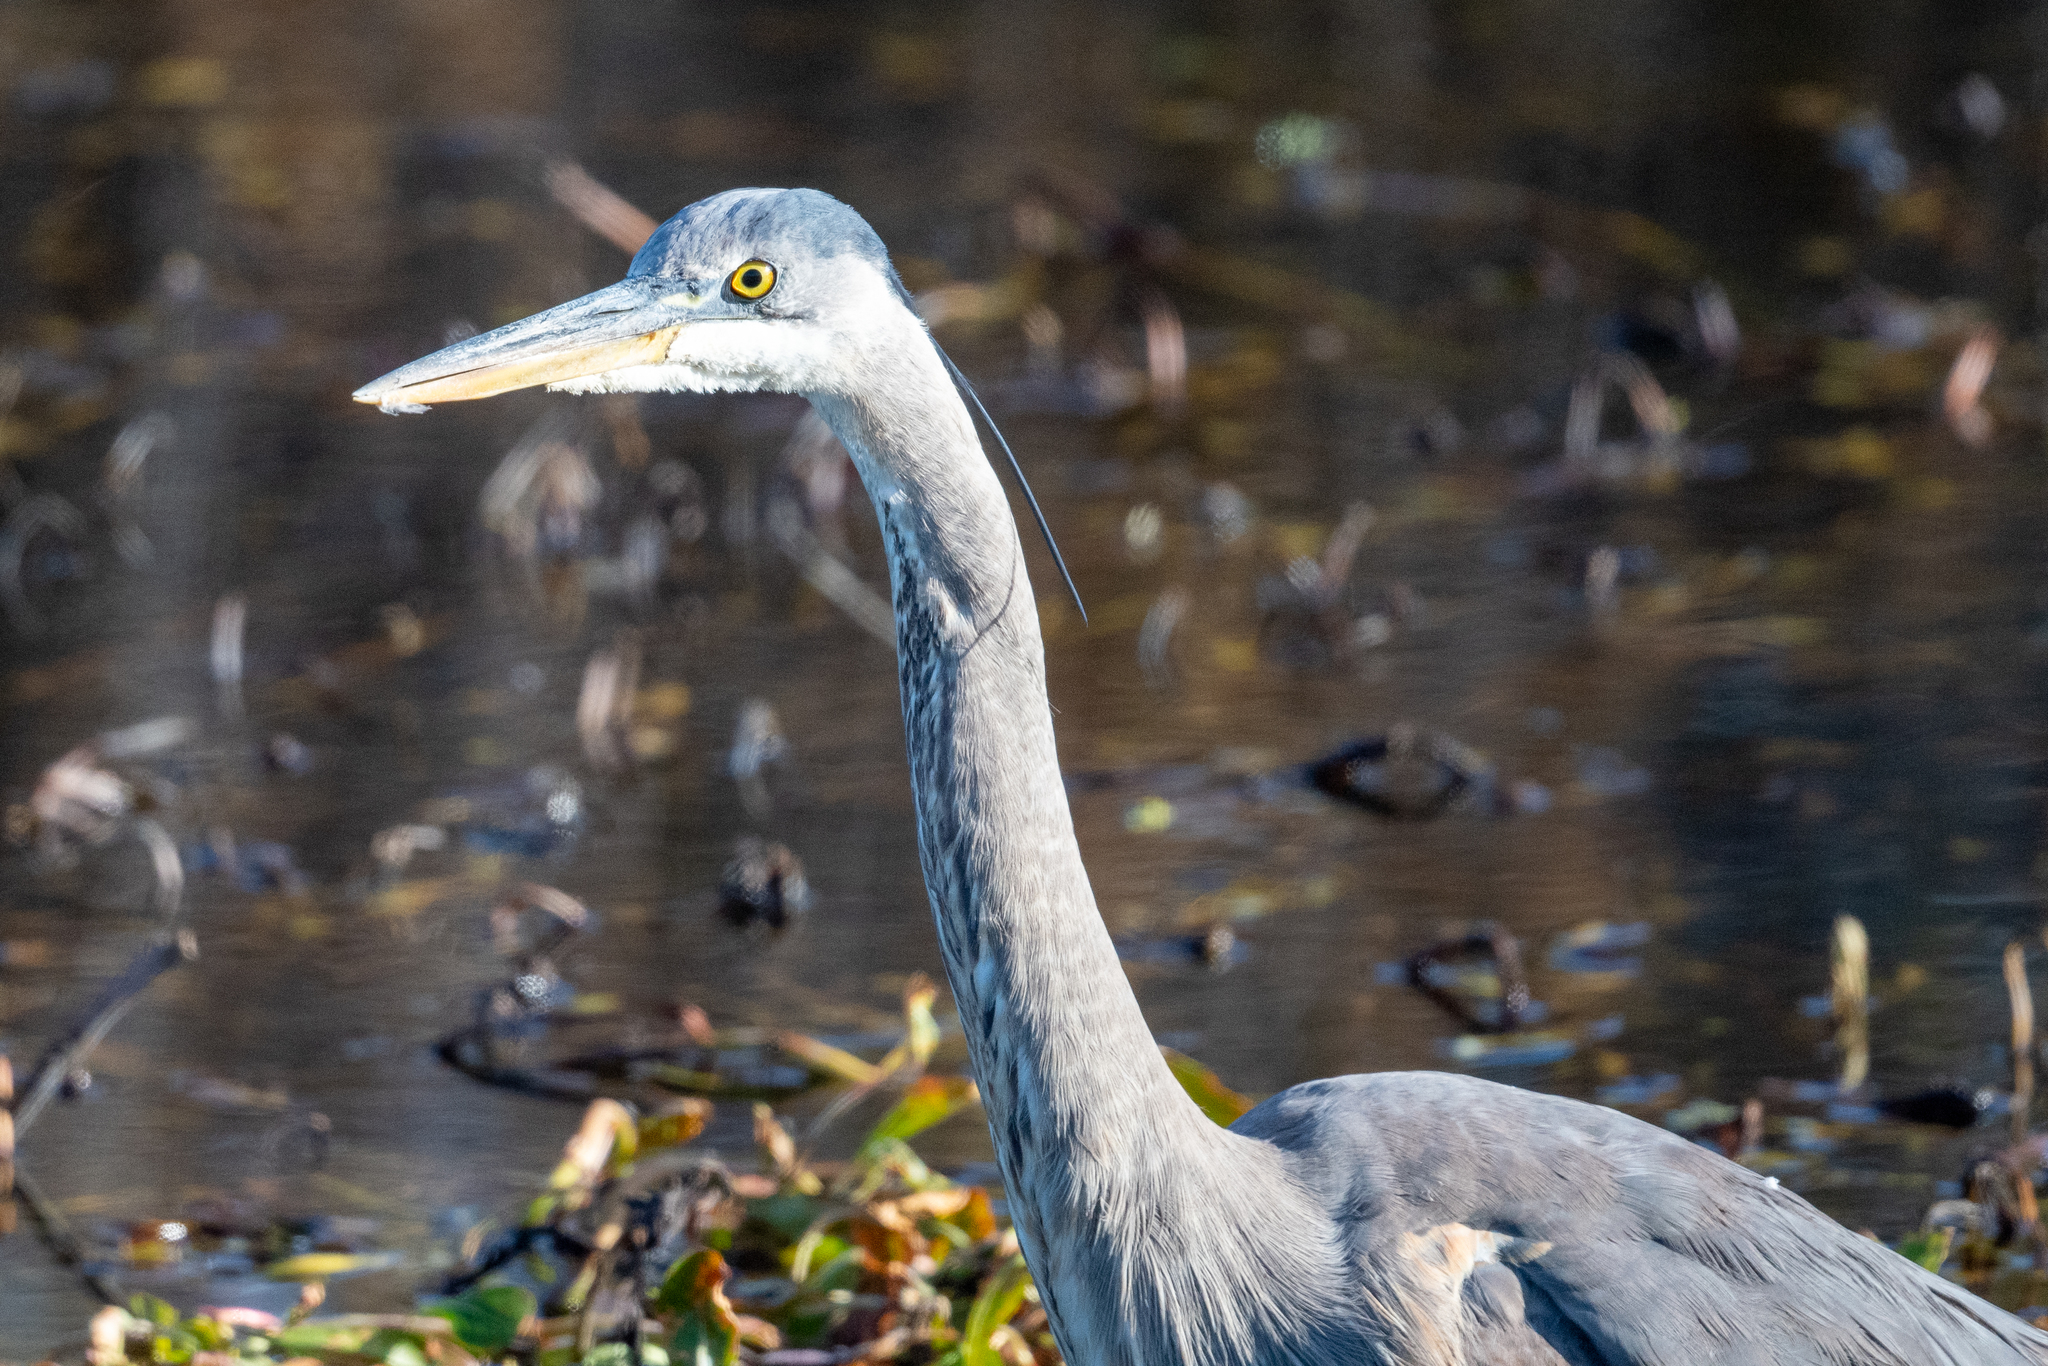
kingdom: Animalia
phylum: Chordata
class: Aves
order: Pelecaniformes
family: Ardeidae
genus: Ardea
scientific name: Ardea herodias
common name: Great blue heron
